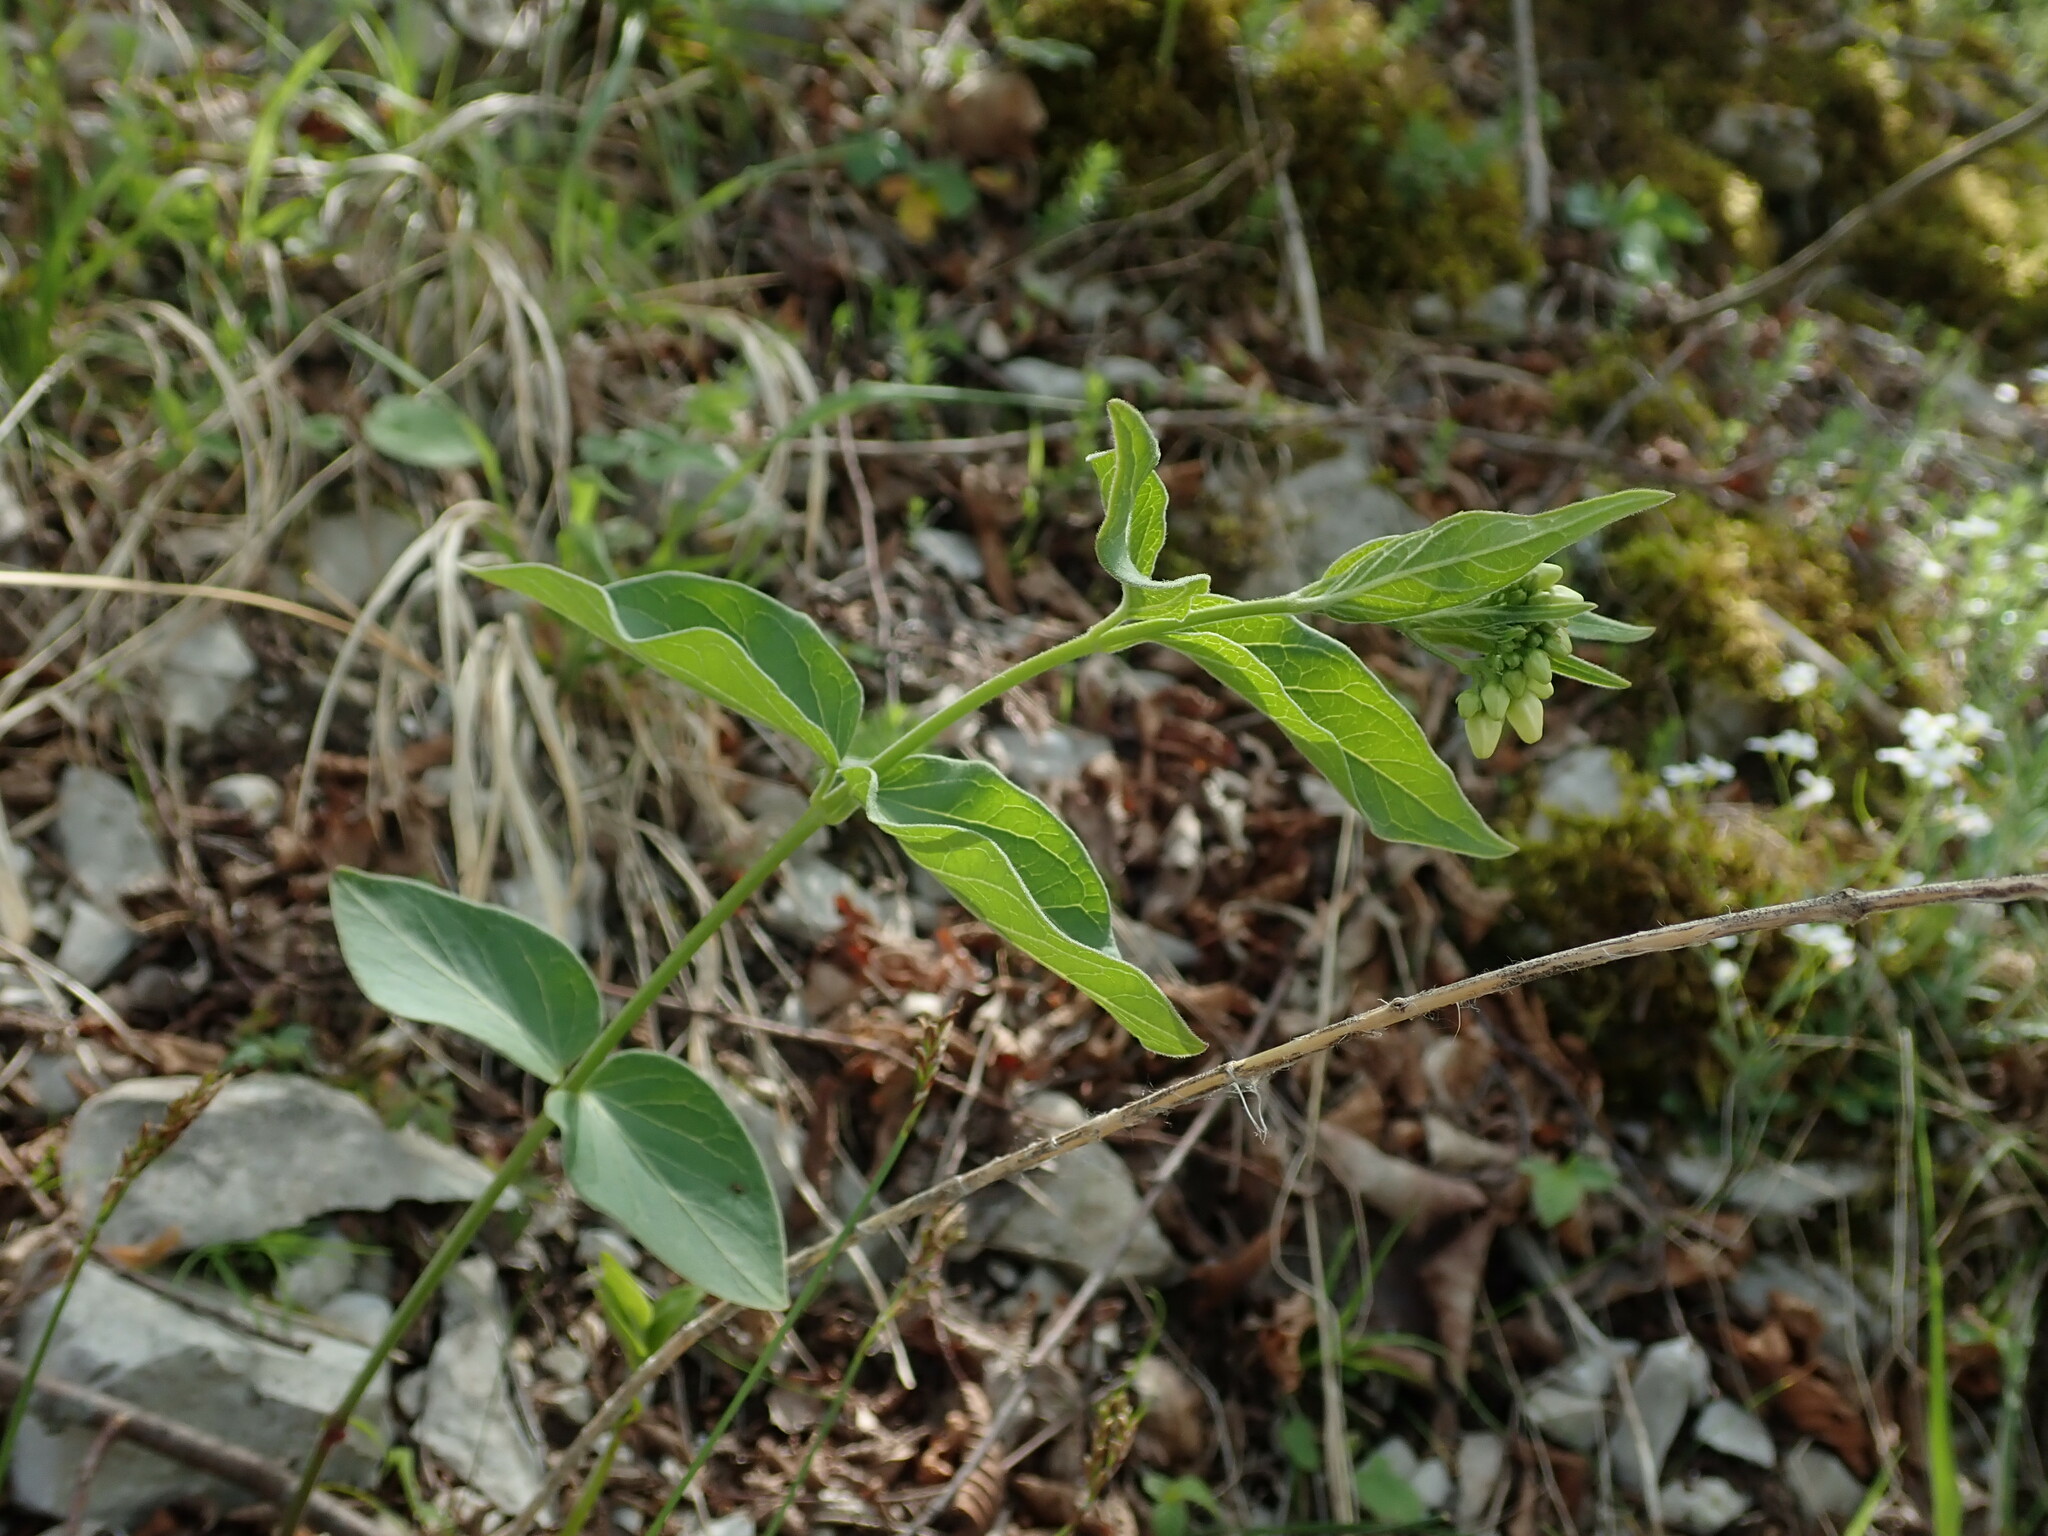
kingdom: Plantae
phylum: Tracheophyta
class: Magnoliopsida
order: Gentianales
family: Apocynaceae
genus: Vincetoxicum
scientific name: Vincetoxicum hirundinaria
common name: White swallowwort
